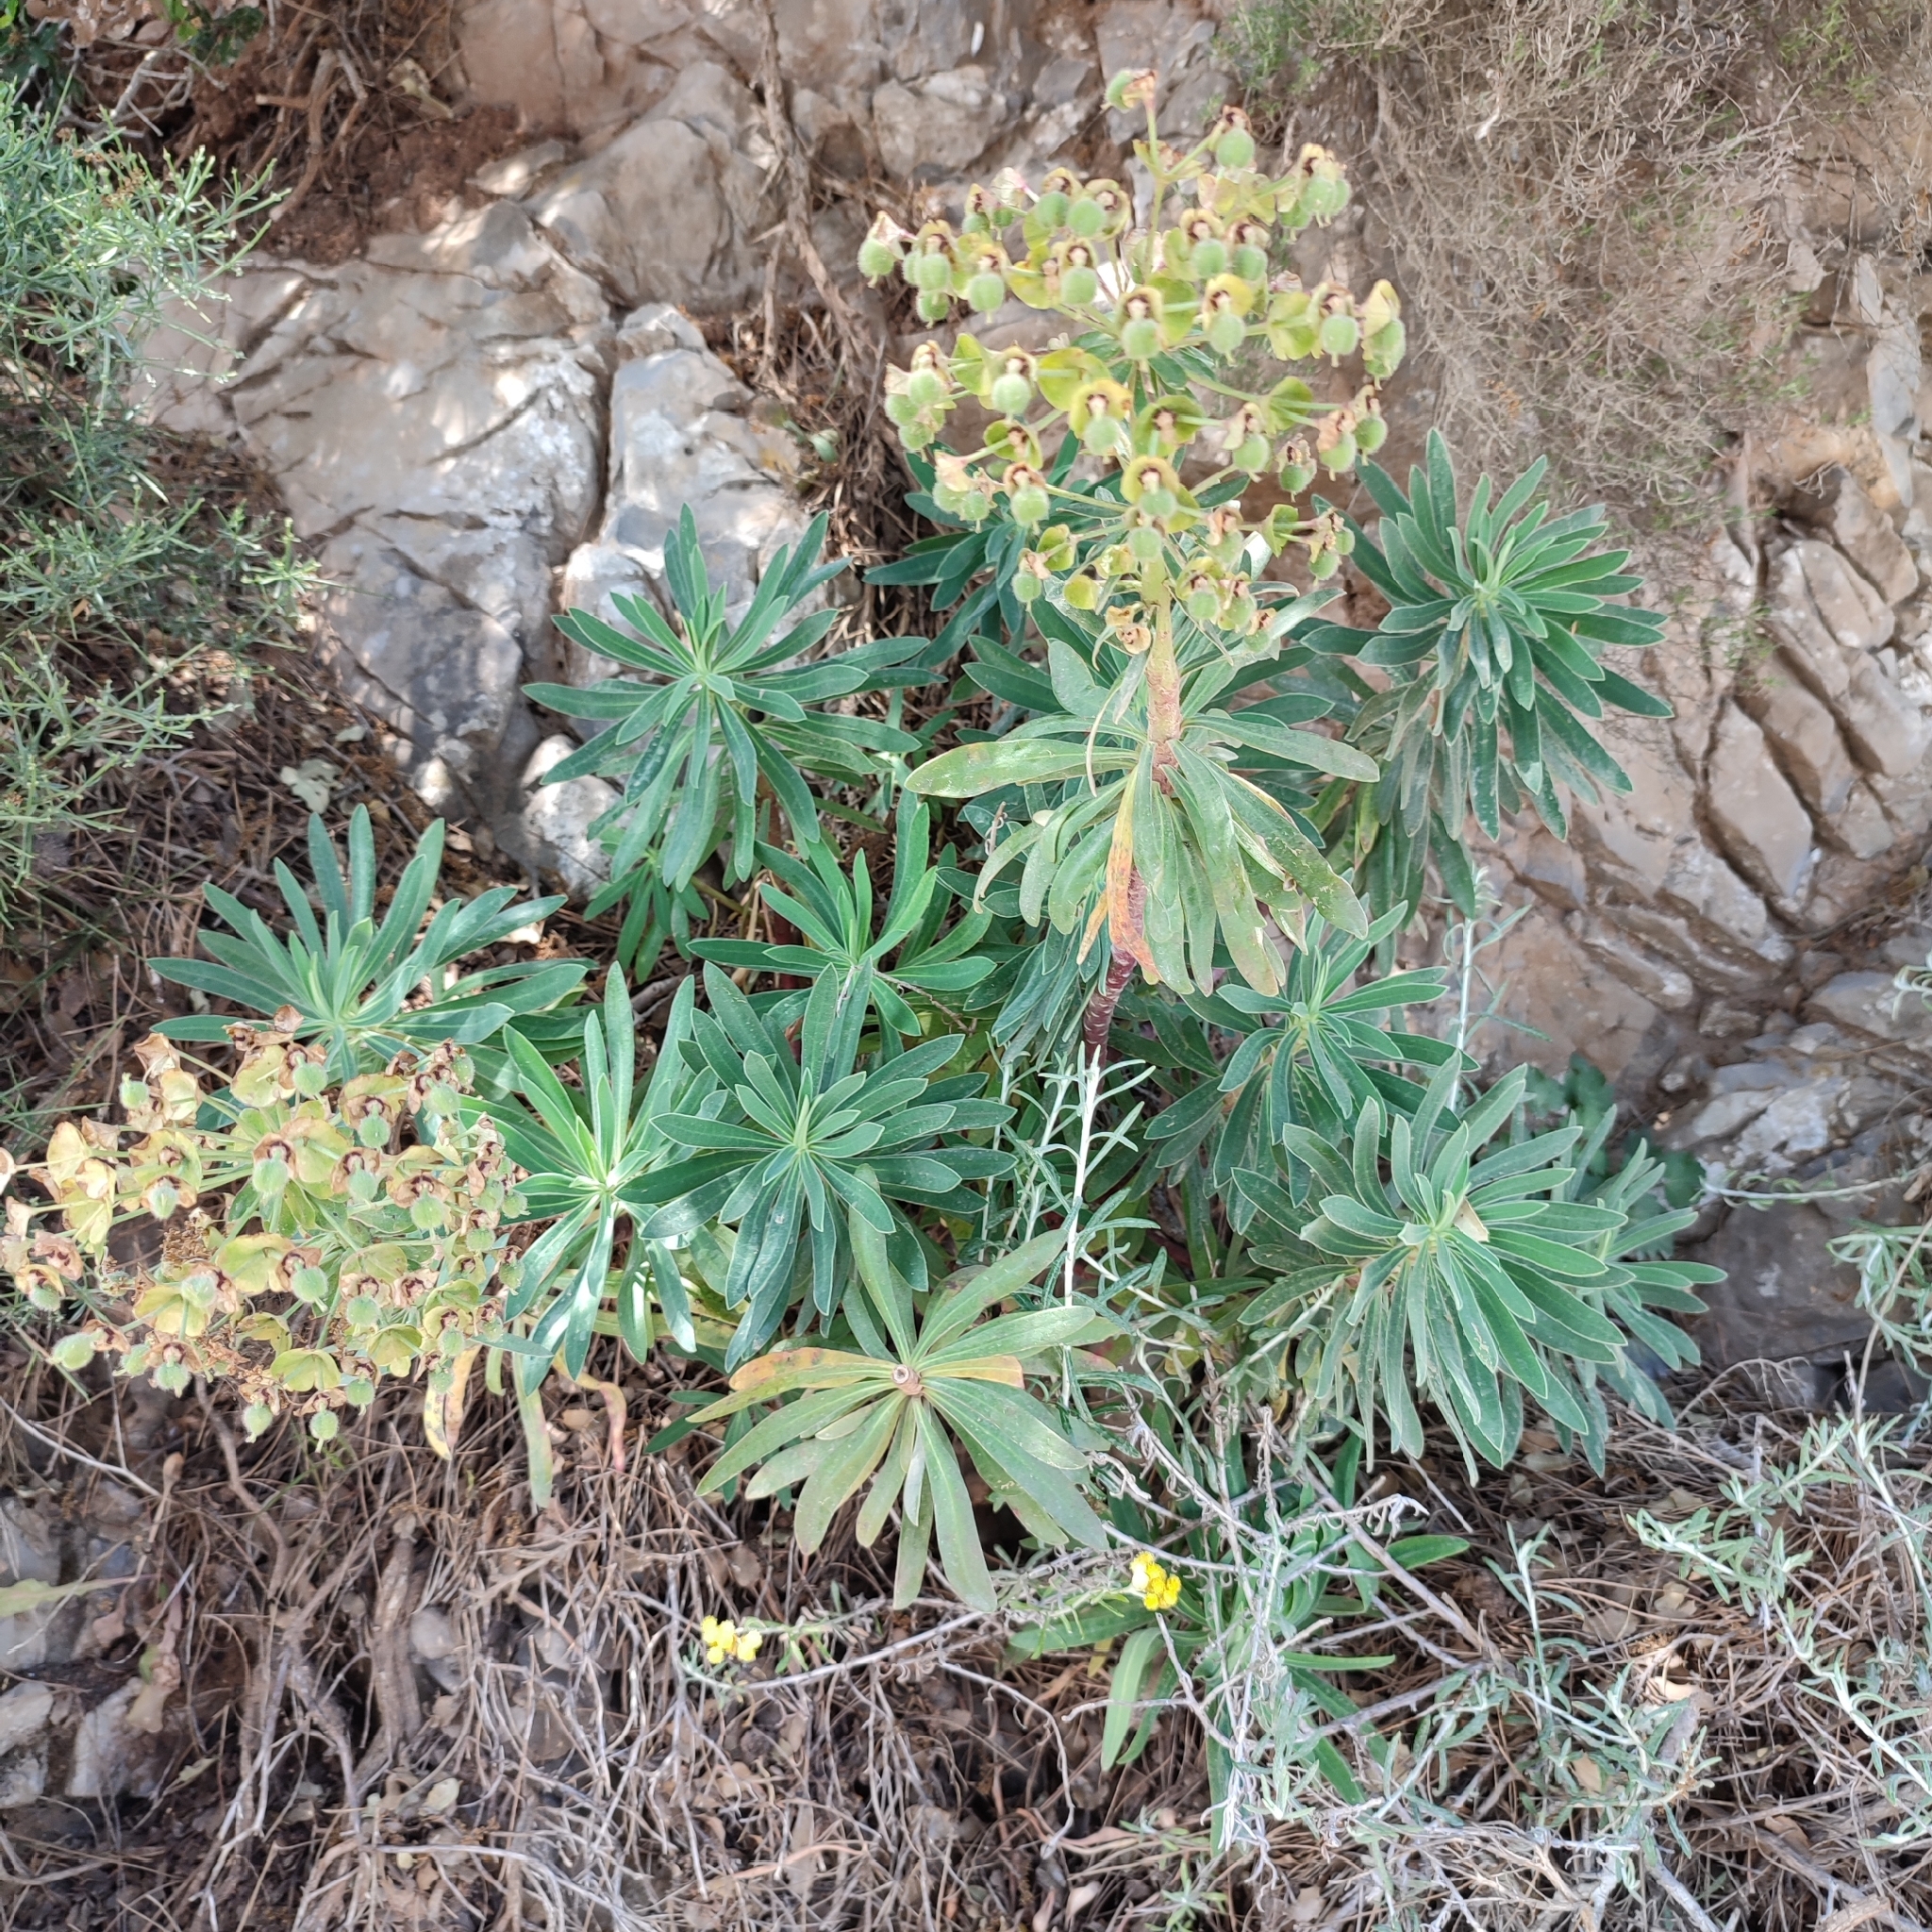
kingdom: Plantae
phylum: Tracheophyta
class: Magnoliopsida
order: Malpighiales
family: Euphorbiaceae
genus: Euphorbia
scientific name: Euphorbia characias
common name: Mediterranean spurge
